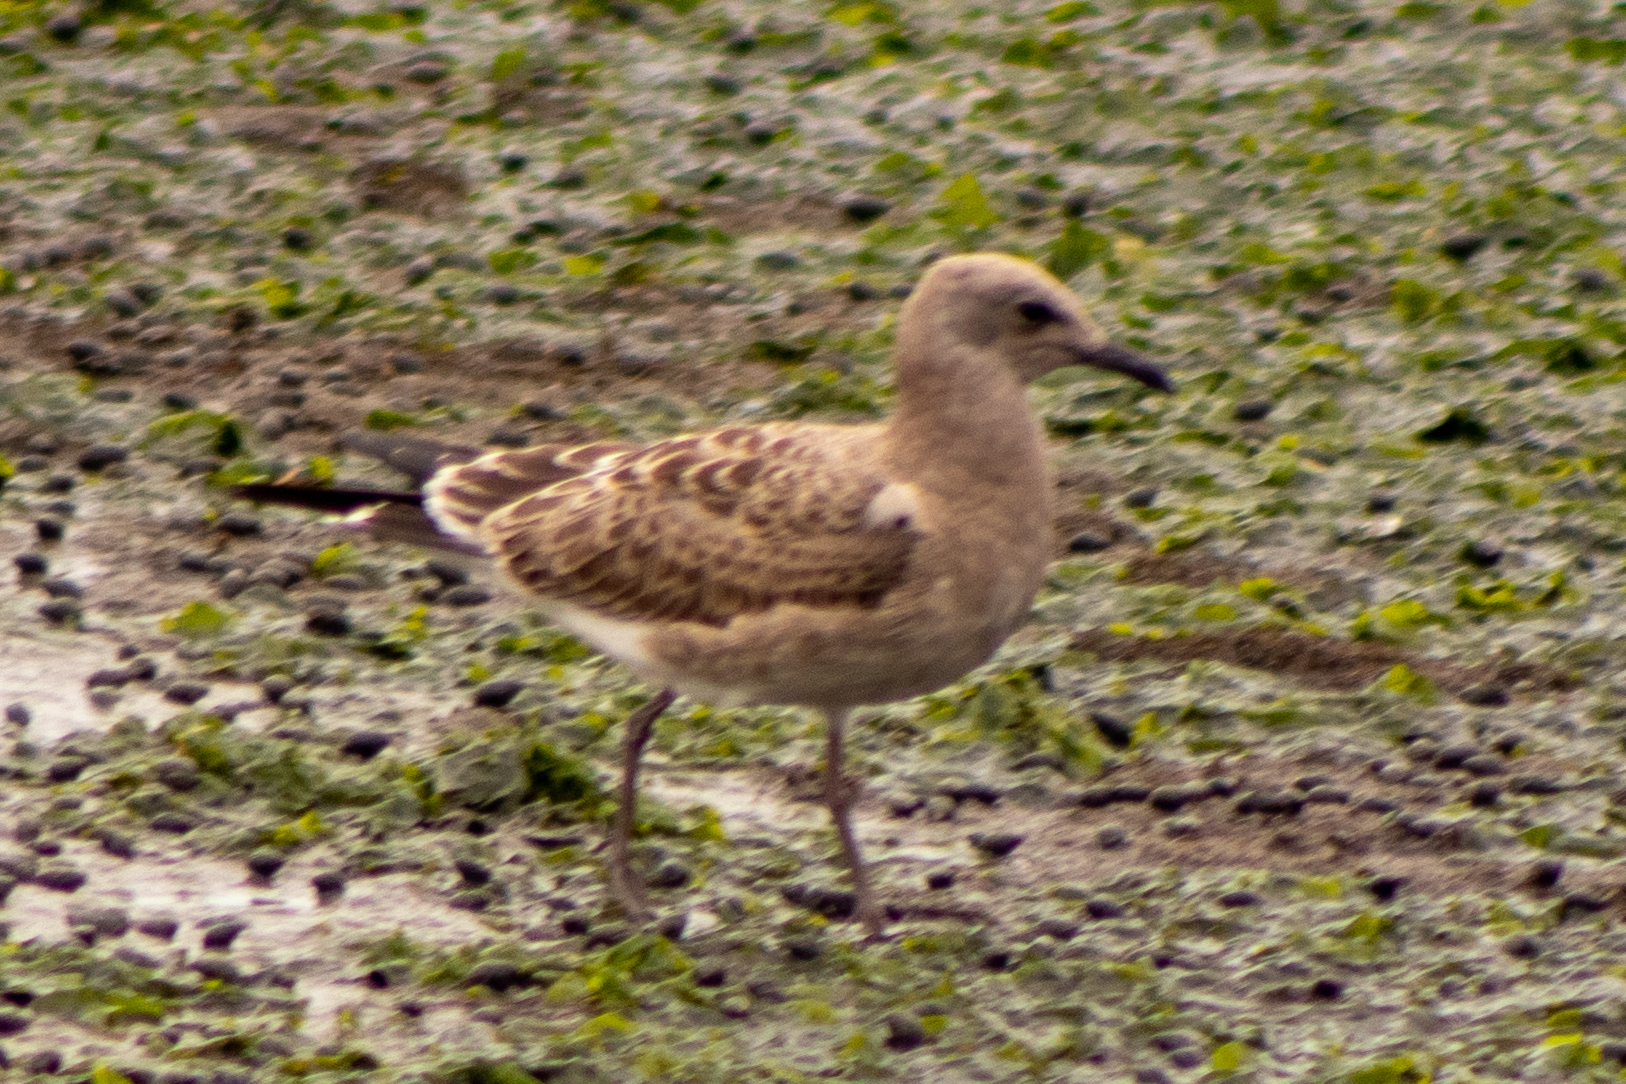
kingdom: Animalia
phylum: Chordata
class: Aves
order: Charadriiformes
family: Laridae
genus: Leucophaeus
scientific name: Leucophaeus atricilla
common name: Laughing gull
